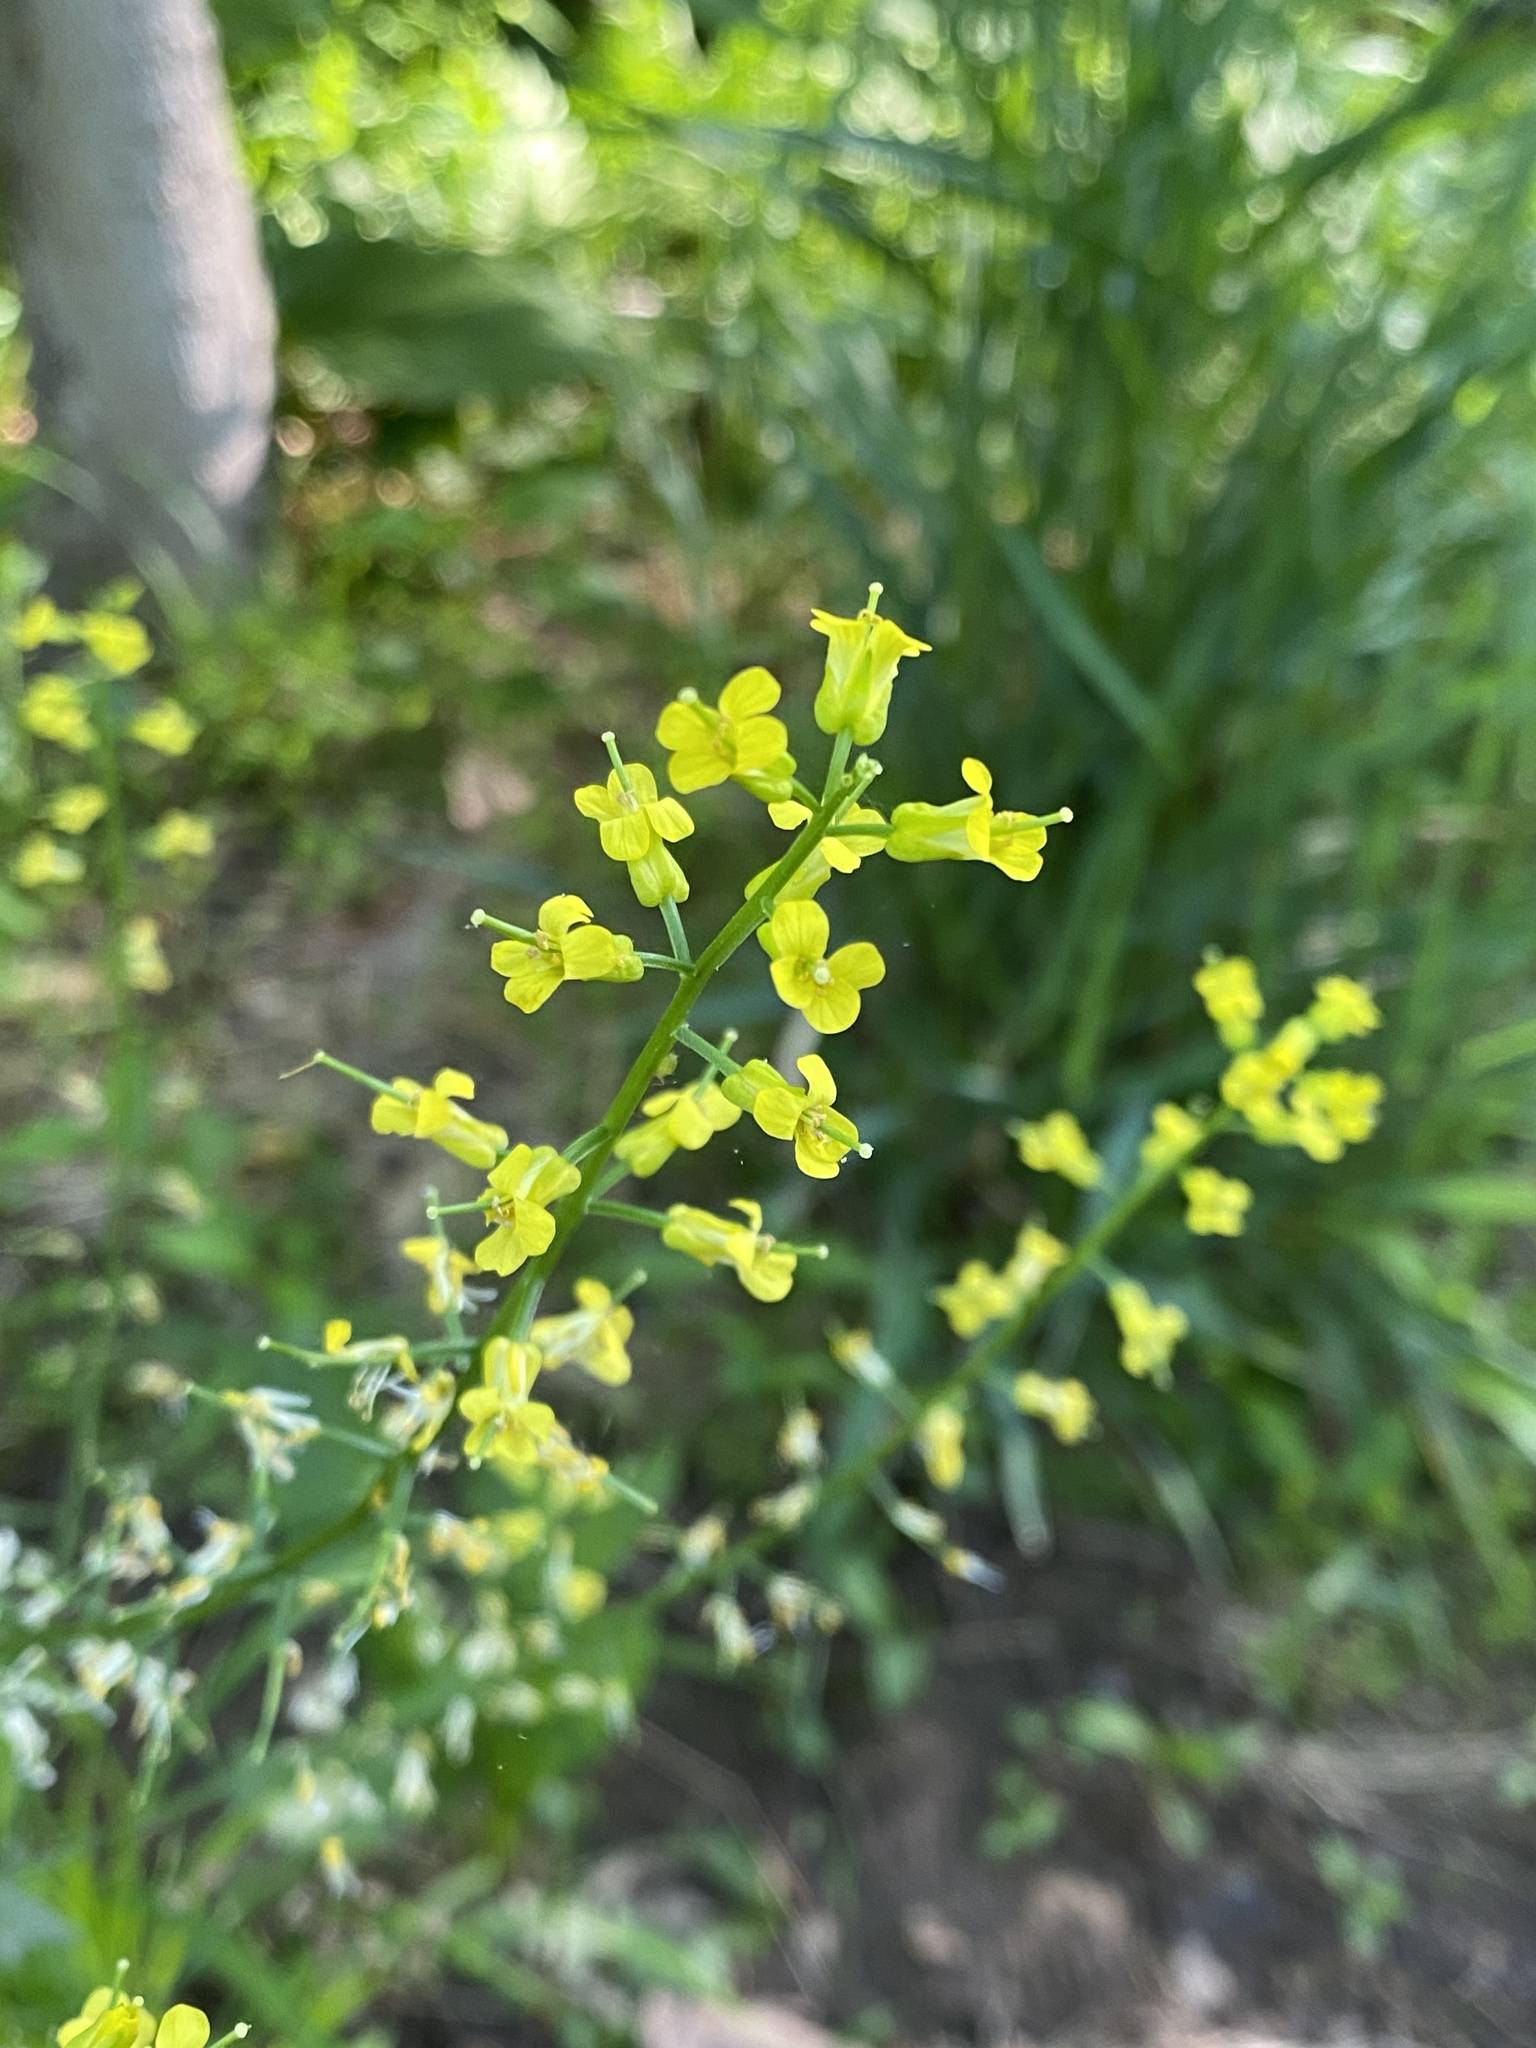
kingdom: Plantae
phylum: Tracheophyta
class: Magnoliopsida
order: Brassicales
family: Brassicaceae
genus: Barbarea
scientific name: Barbarea vulgaris
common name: Cressy-greens
